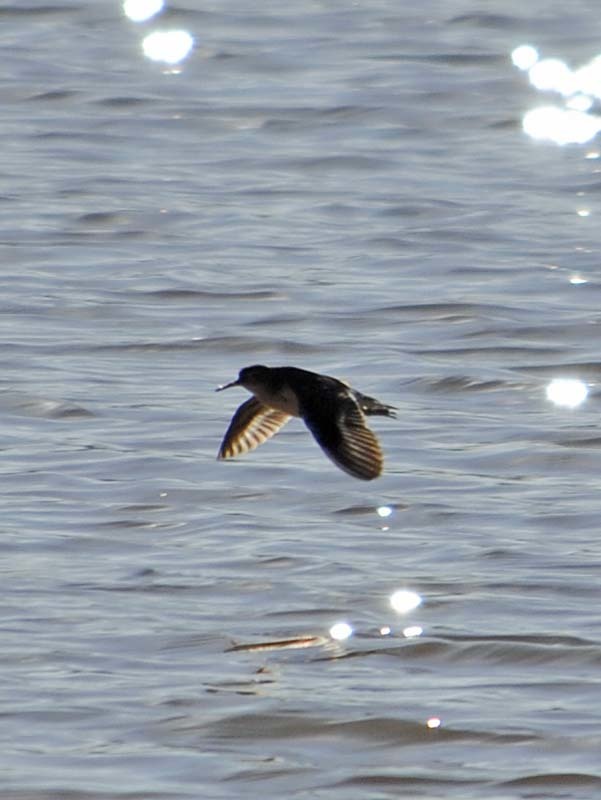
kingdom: Animalia
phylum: Chordata
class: Aves
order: Charadriiformes
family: Scolopacidae
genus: Actitis
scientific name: Actitis macularius
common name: Spotted sandpiper
